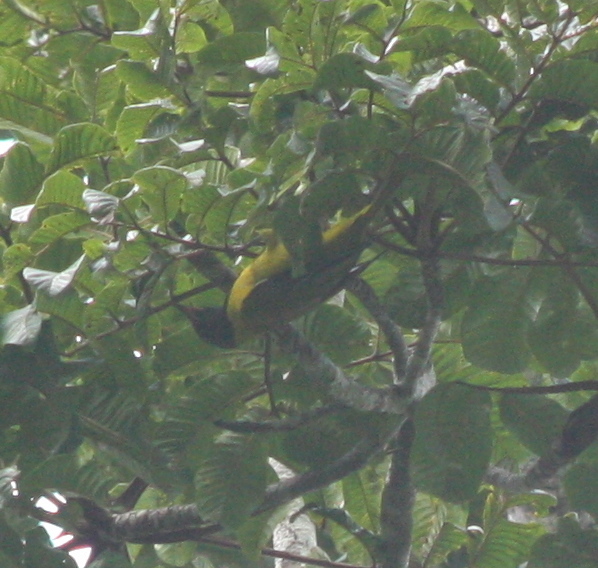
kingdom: Animalia
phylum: Chordata
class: Aves
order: Passeriformes
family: Oriolidae
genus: Oriolus
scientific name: Oriolus brachyrynchus
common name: Western oriole
